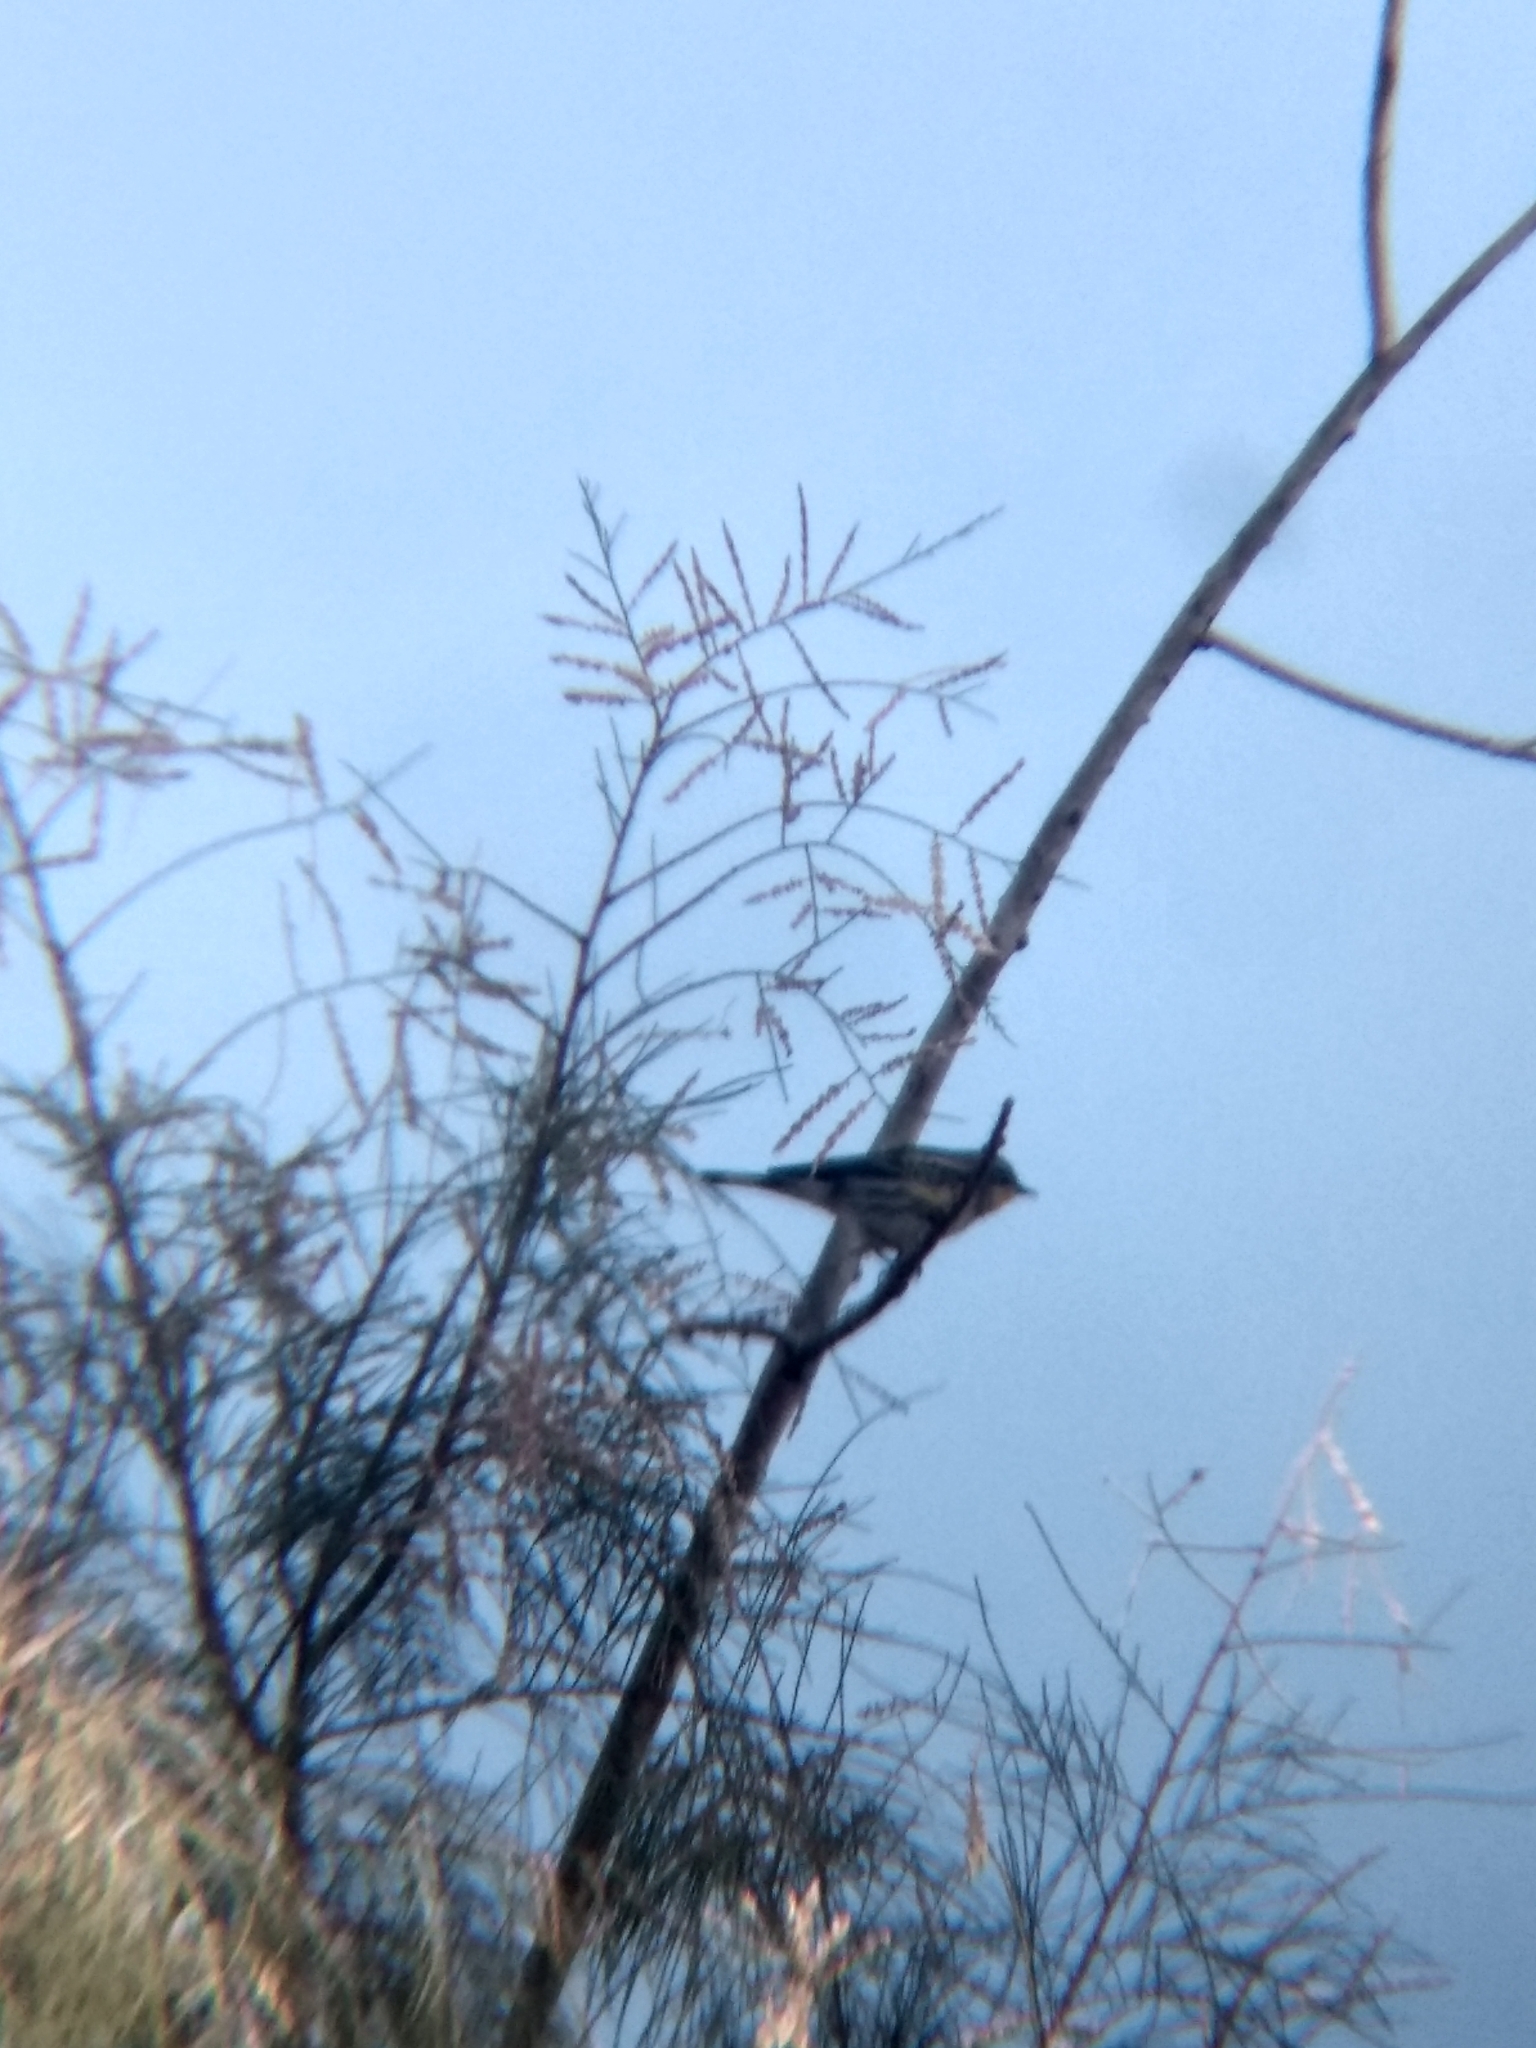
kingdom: Animalia
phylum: Chordata
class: Aves
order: Passeriformes
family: Parulidae
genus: Setophaga
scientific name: Setophaga coronata
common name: Myrtle warbler
